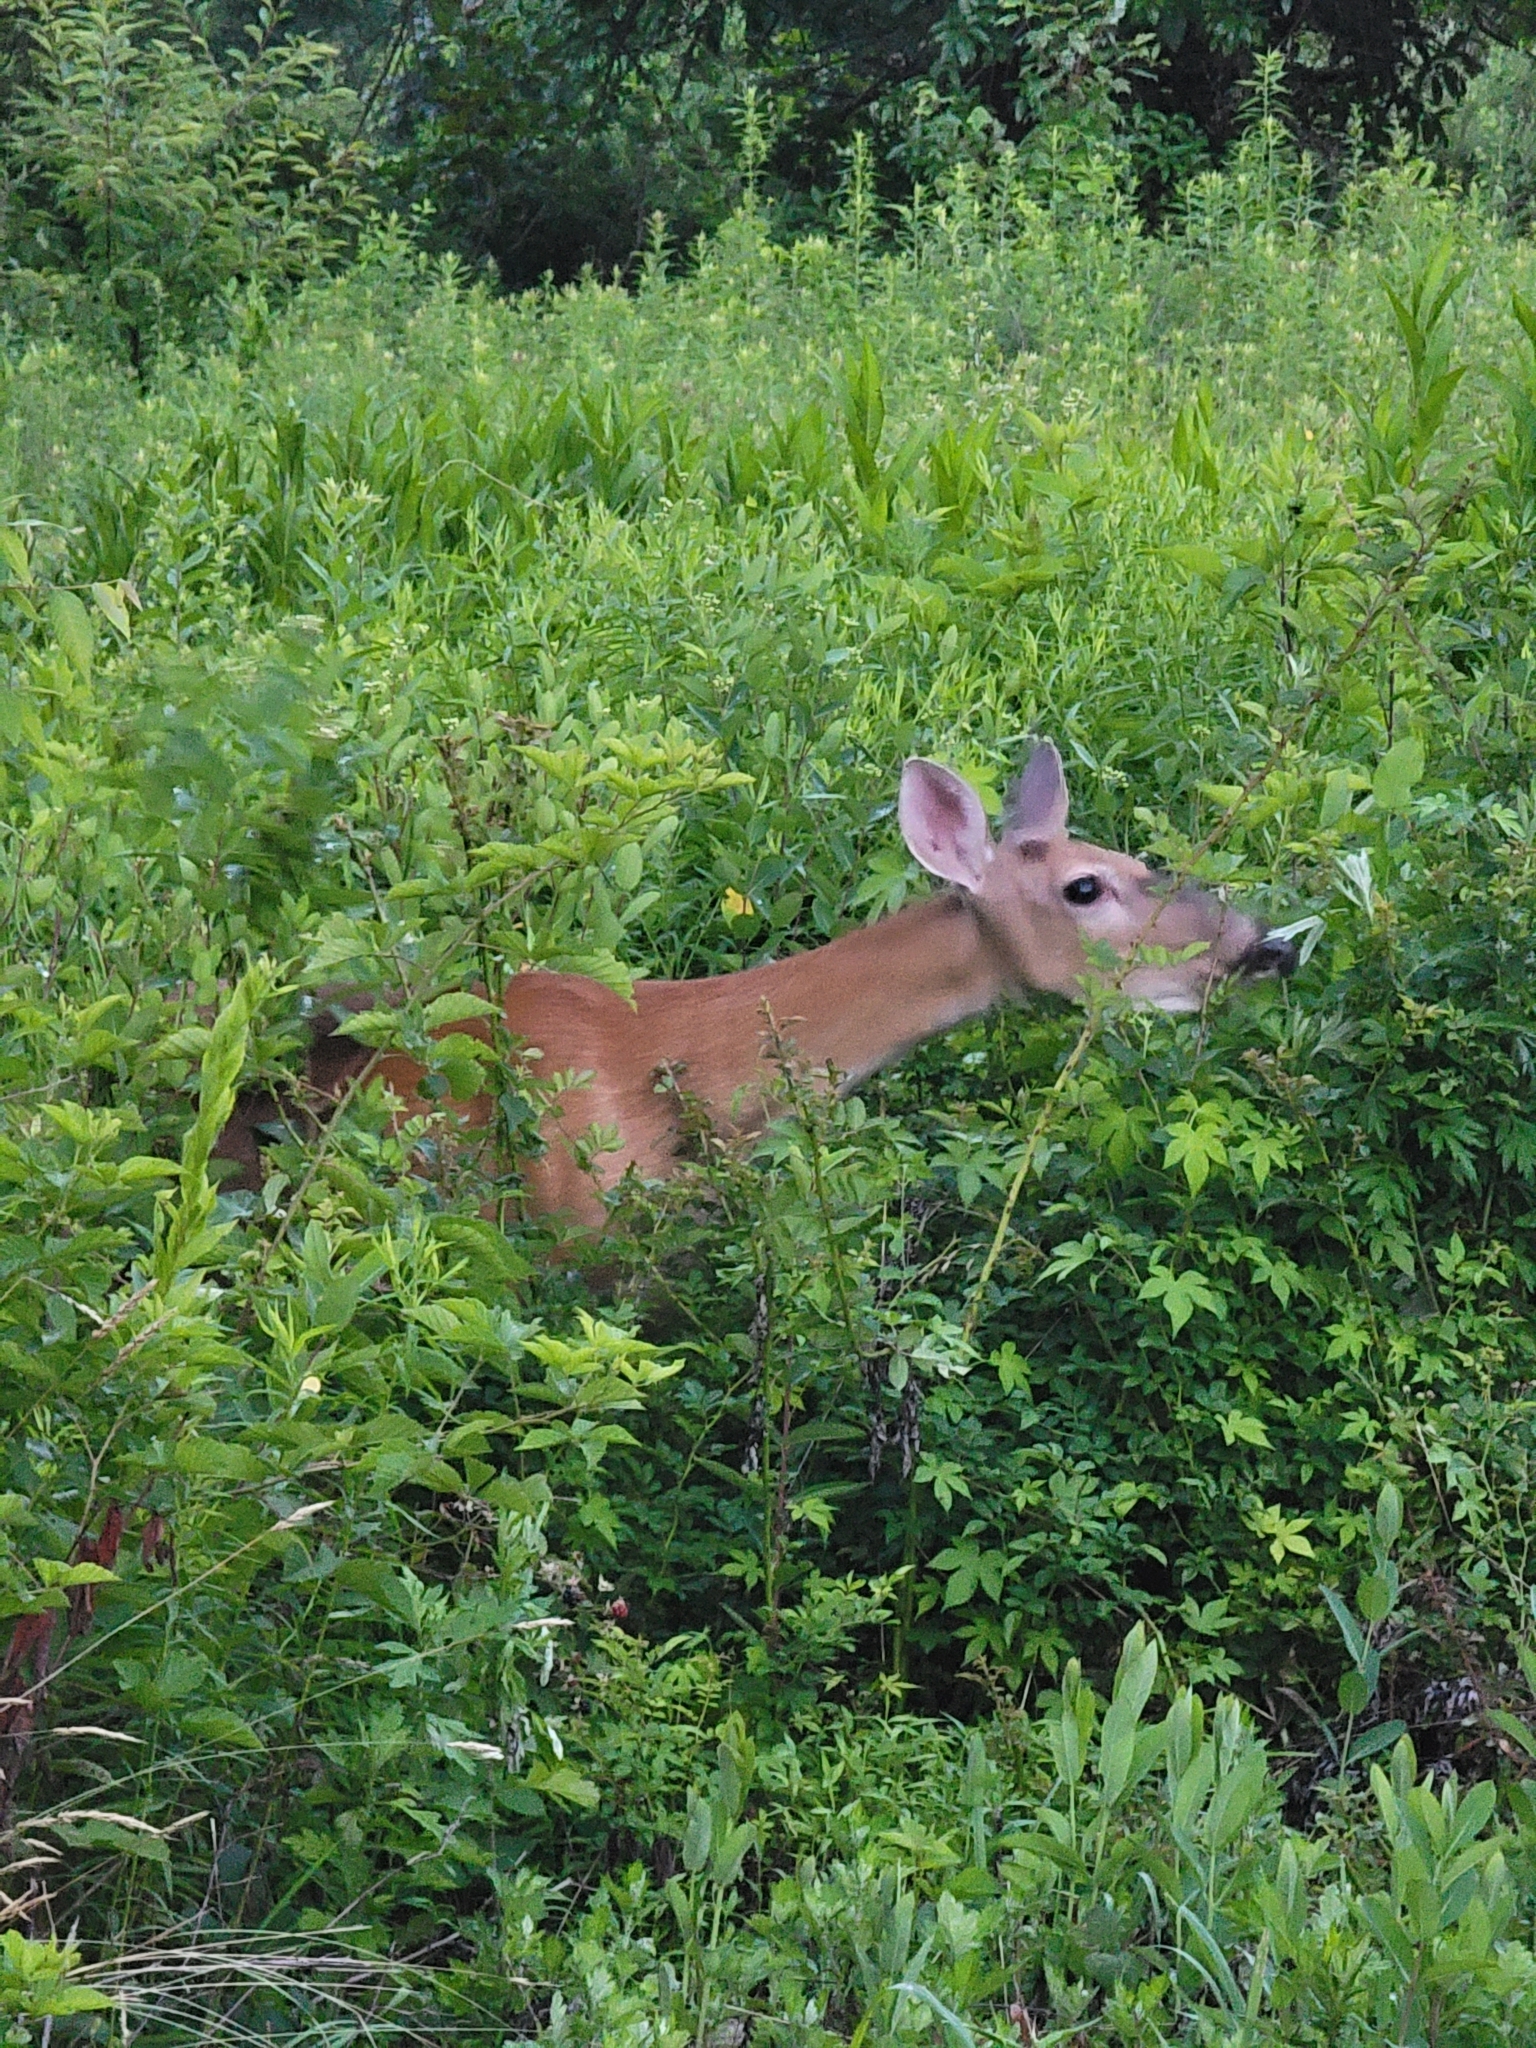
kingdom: Animalia
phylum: Chordata
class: Mammalia
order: Artiodactyla
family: Cervidae
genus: Odocoileus
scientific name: Odocoileus virginianus
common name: White-tailed deer
